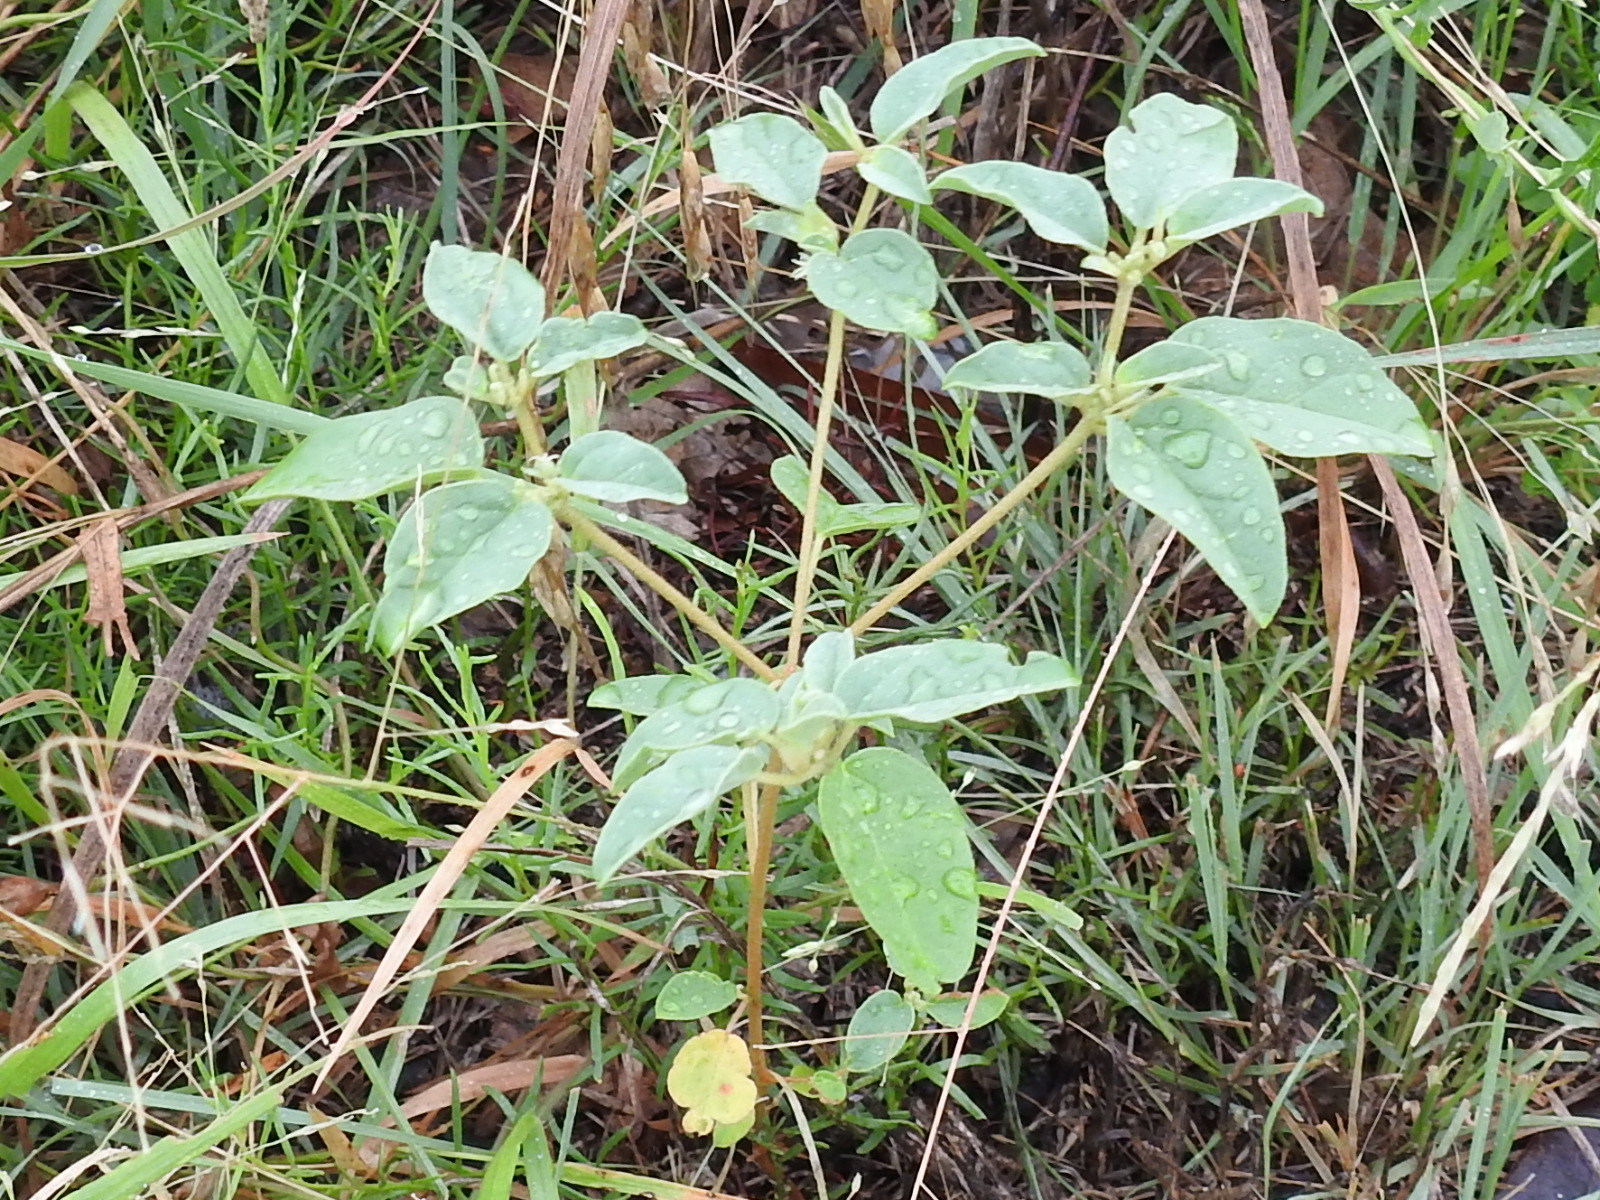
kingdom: Plantae
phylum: Tracheophyta
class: Magnoliopsida
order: Malpighiales
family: Euphorbiaceae
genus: Croton
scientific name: Croton monanthogynus
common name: One-seed croton
